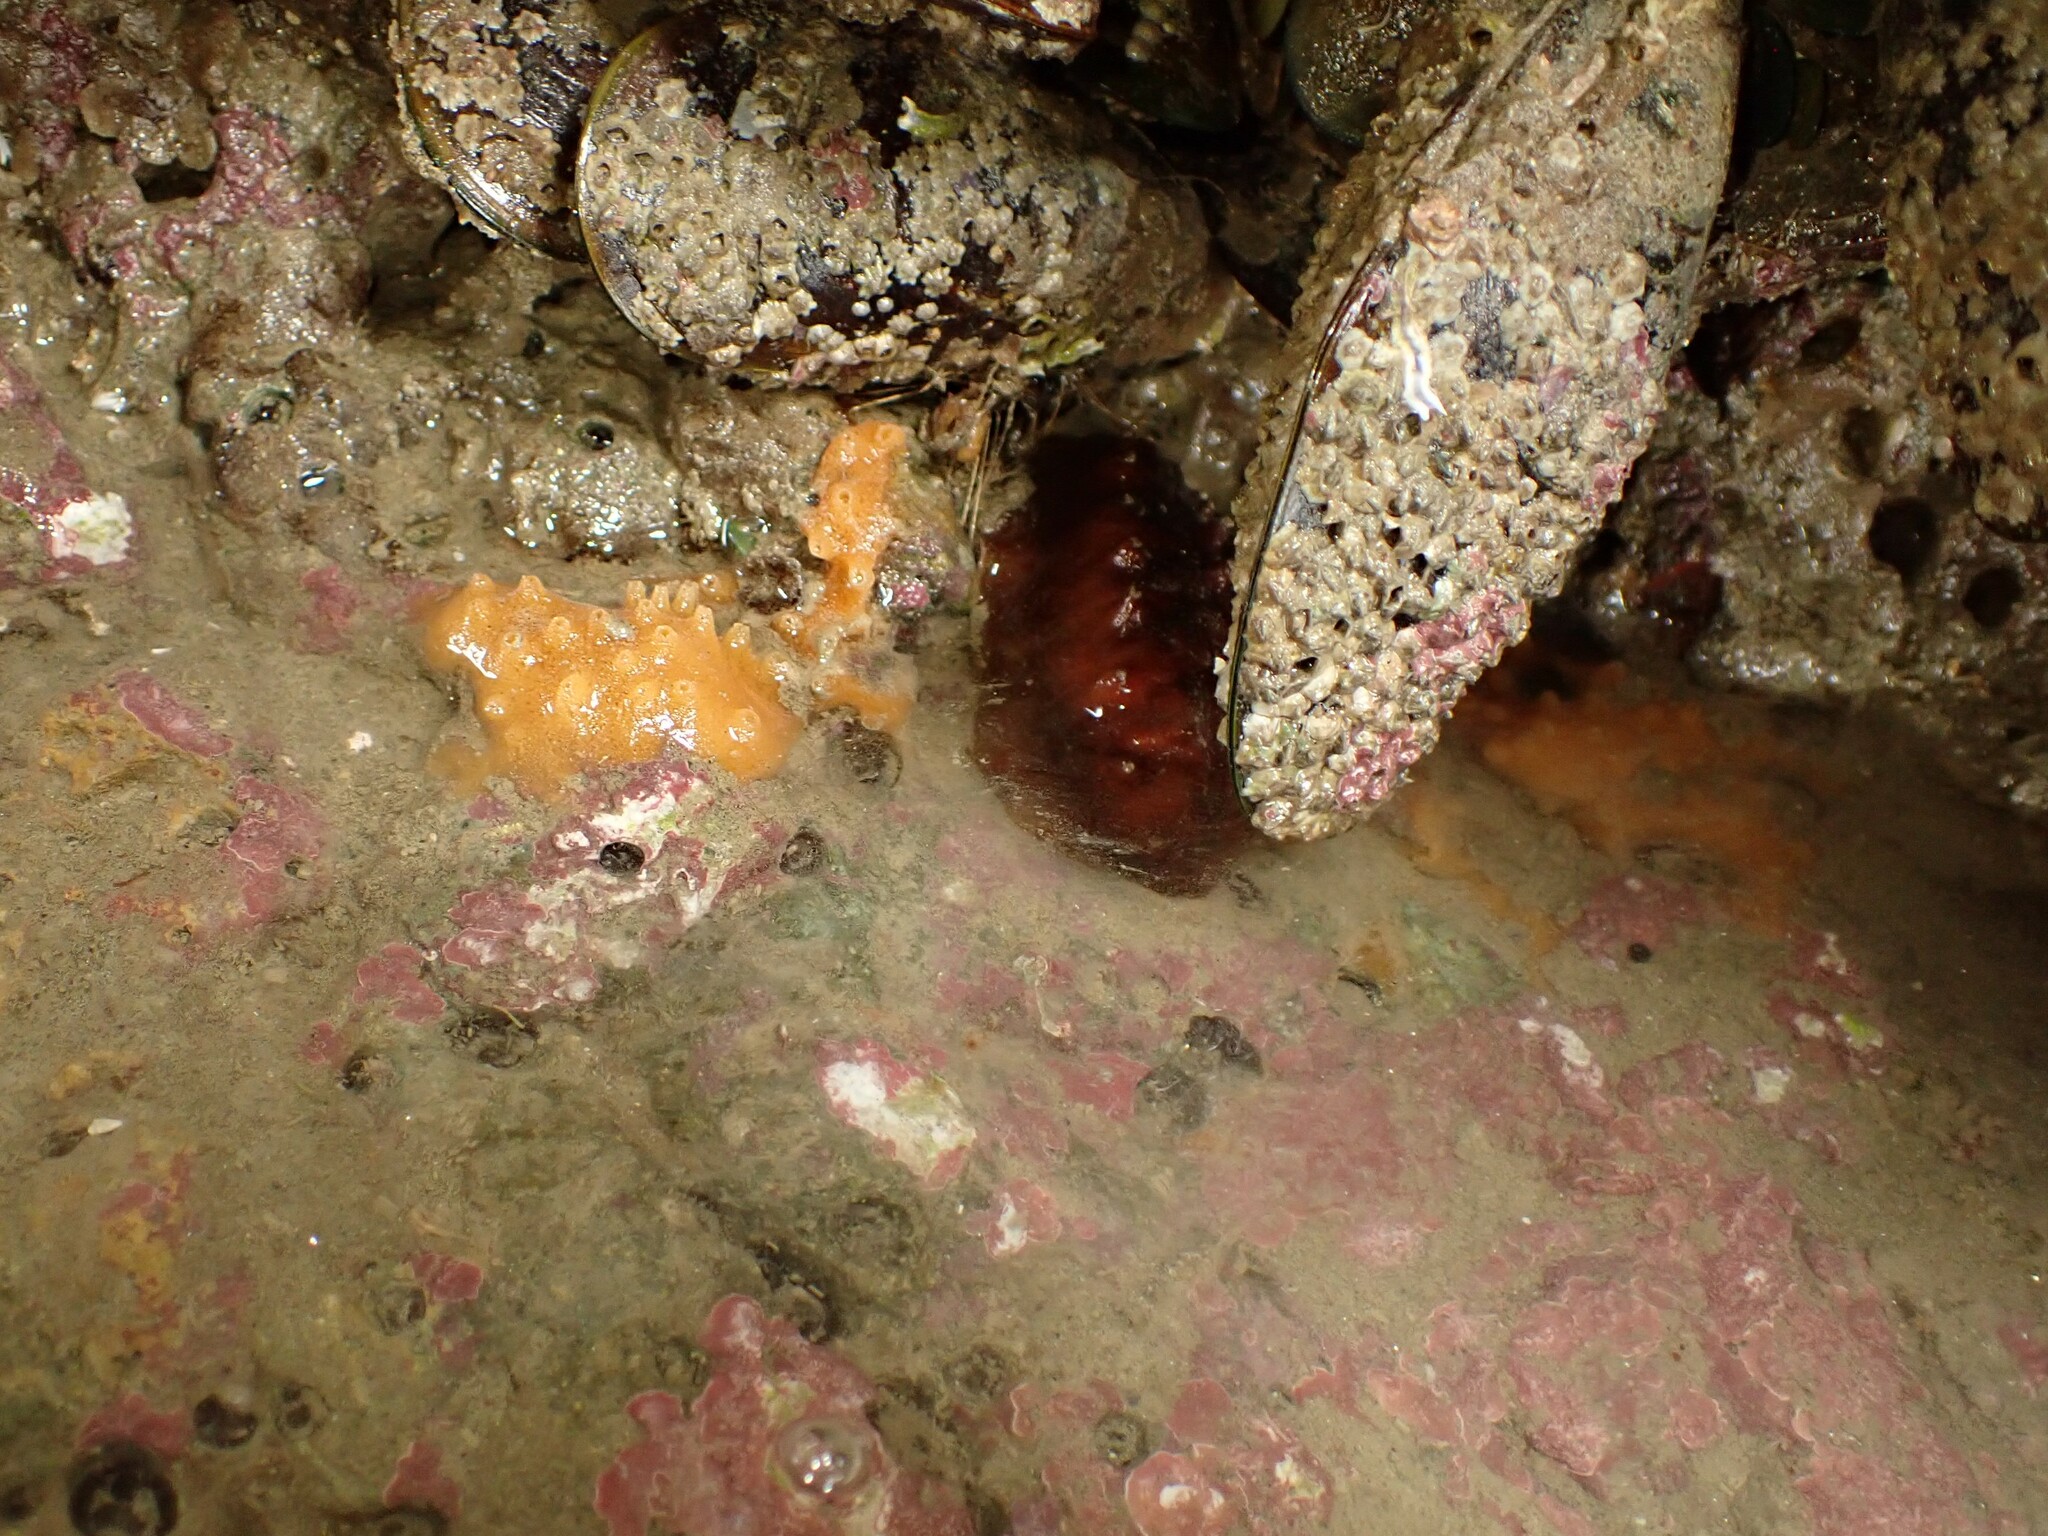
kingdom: Animalia
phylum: Mollusca
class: Polyplacophora
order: Chitonida
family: Acanthochitonidae
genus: Cryptoconchus
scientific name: Cryptoconchus porosus
